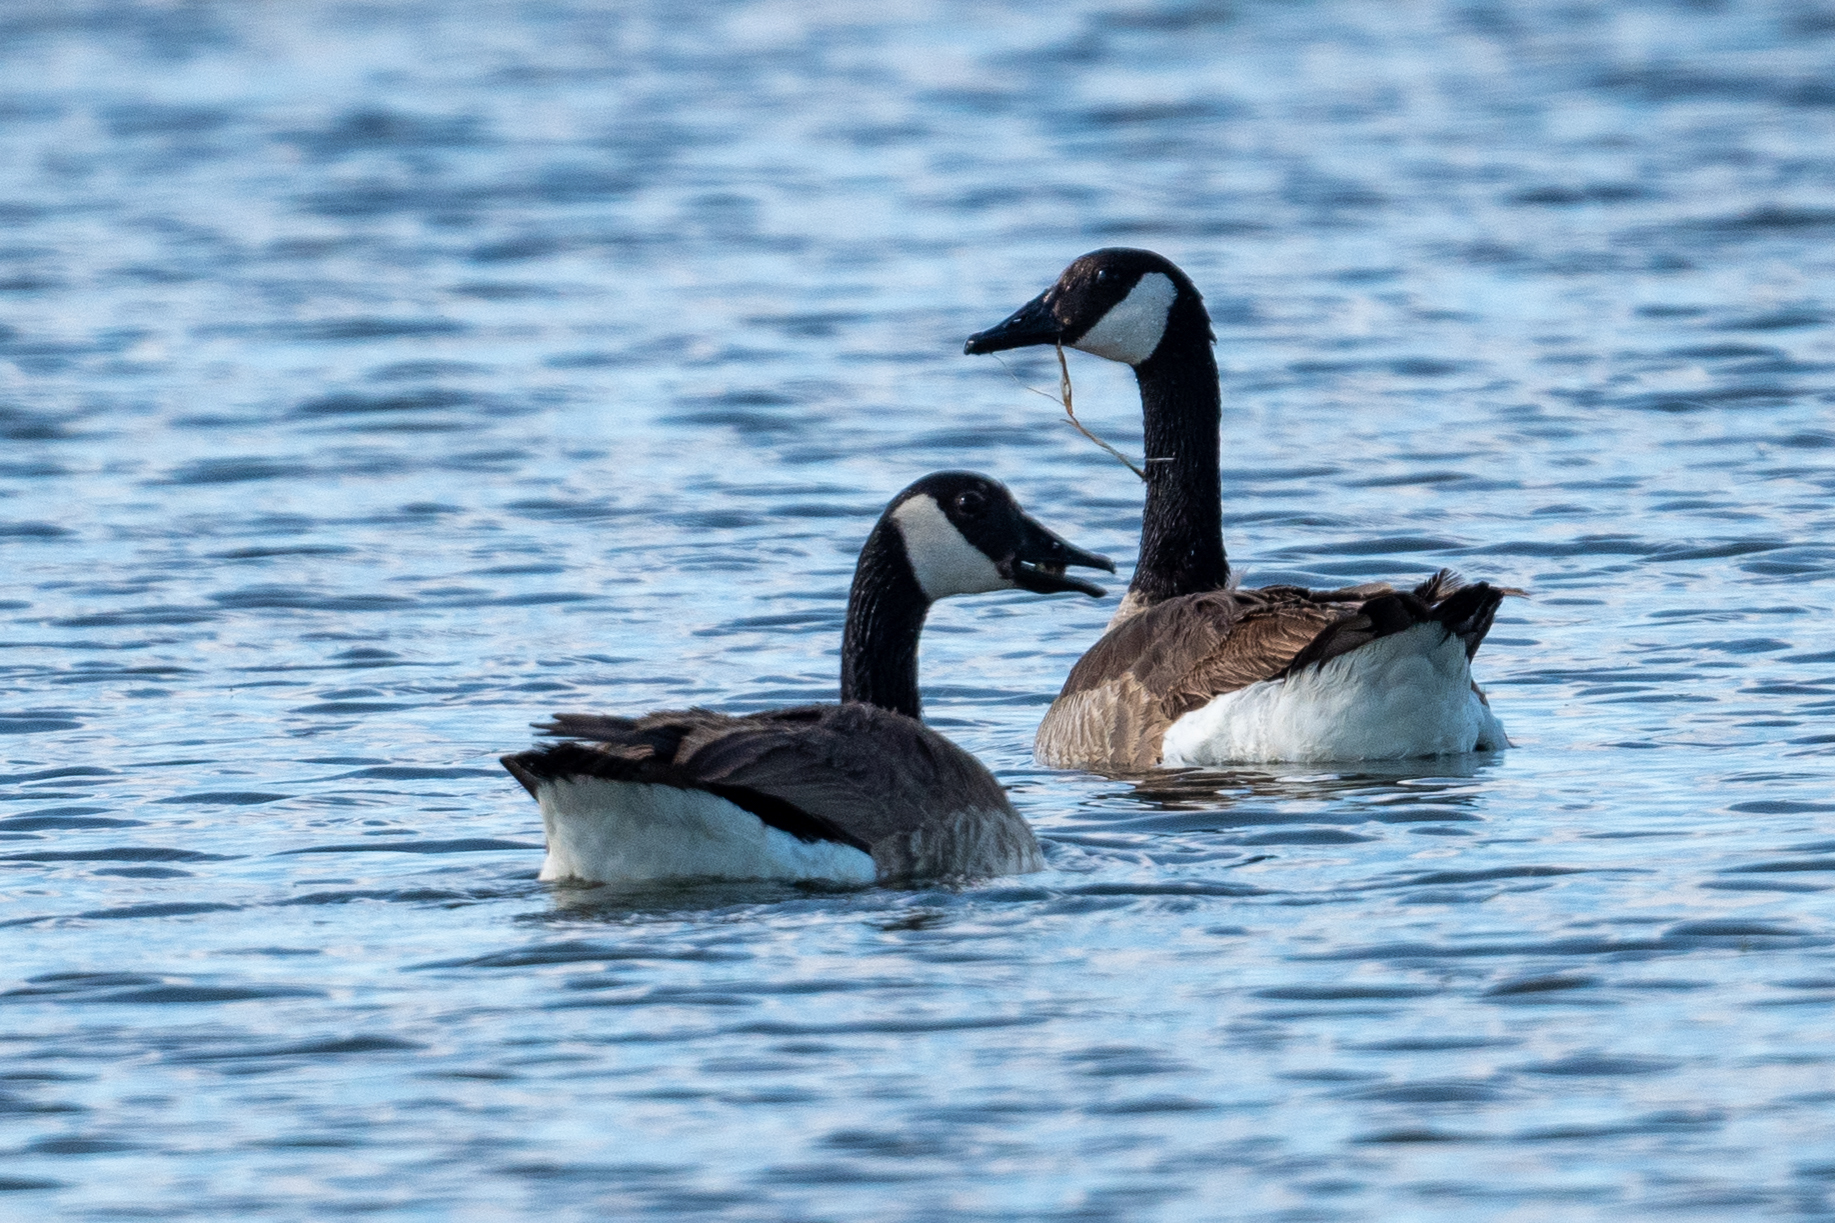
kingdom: Animalia
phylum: Chordata
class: Aves
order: Anseriformes
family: Anatidae
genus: Branta
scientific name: Branta canadensis
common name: Canada goose
